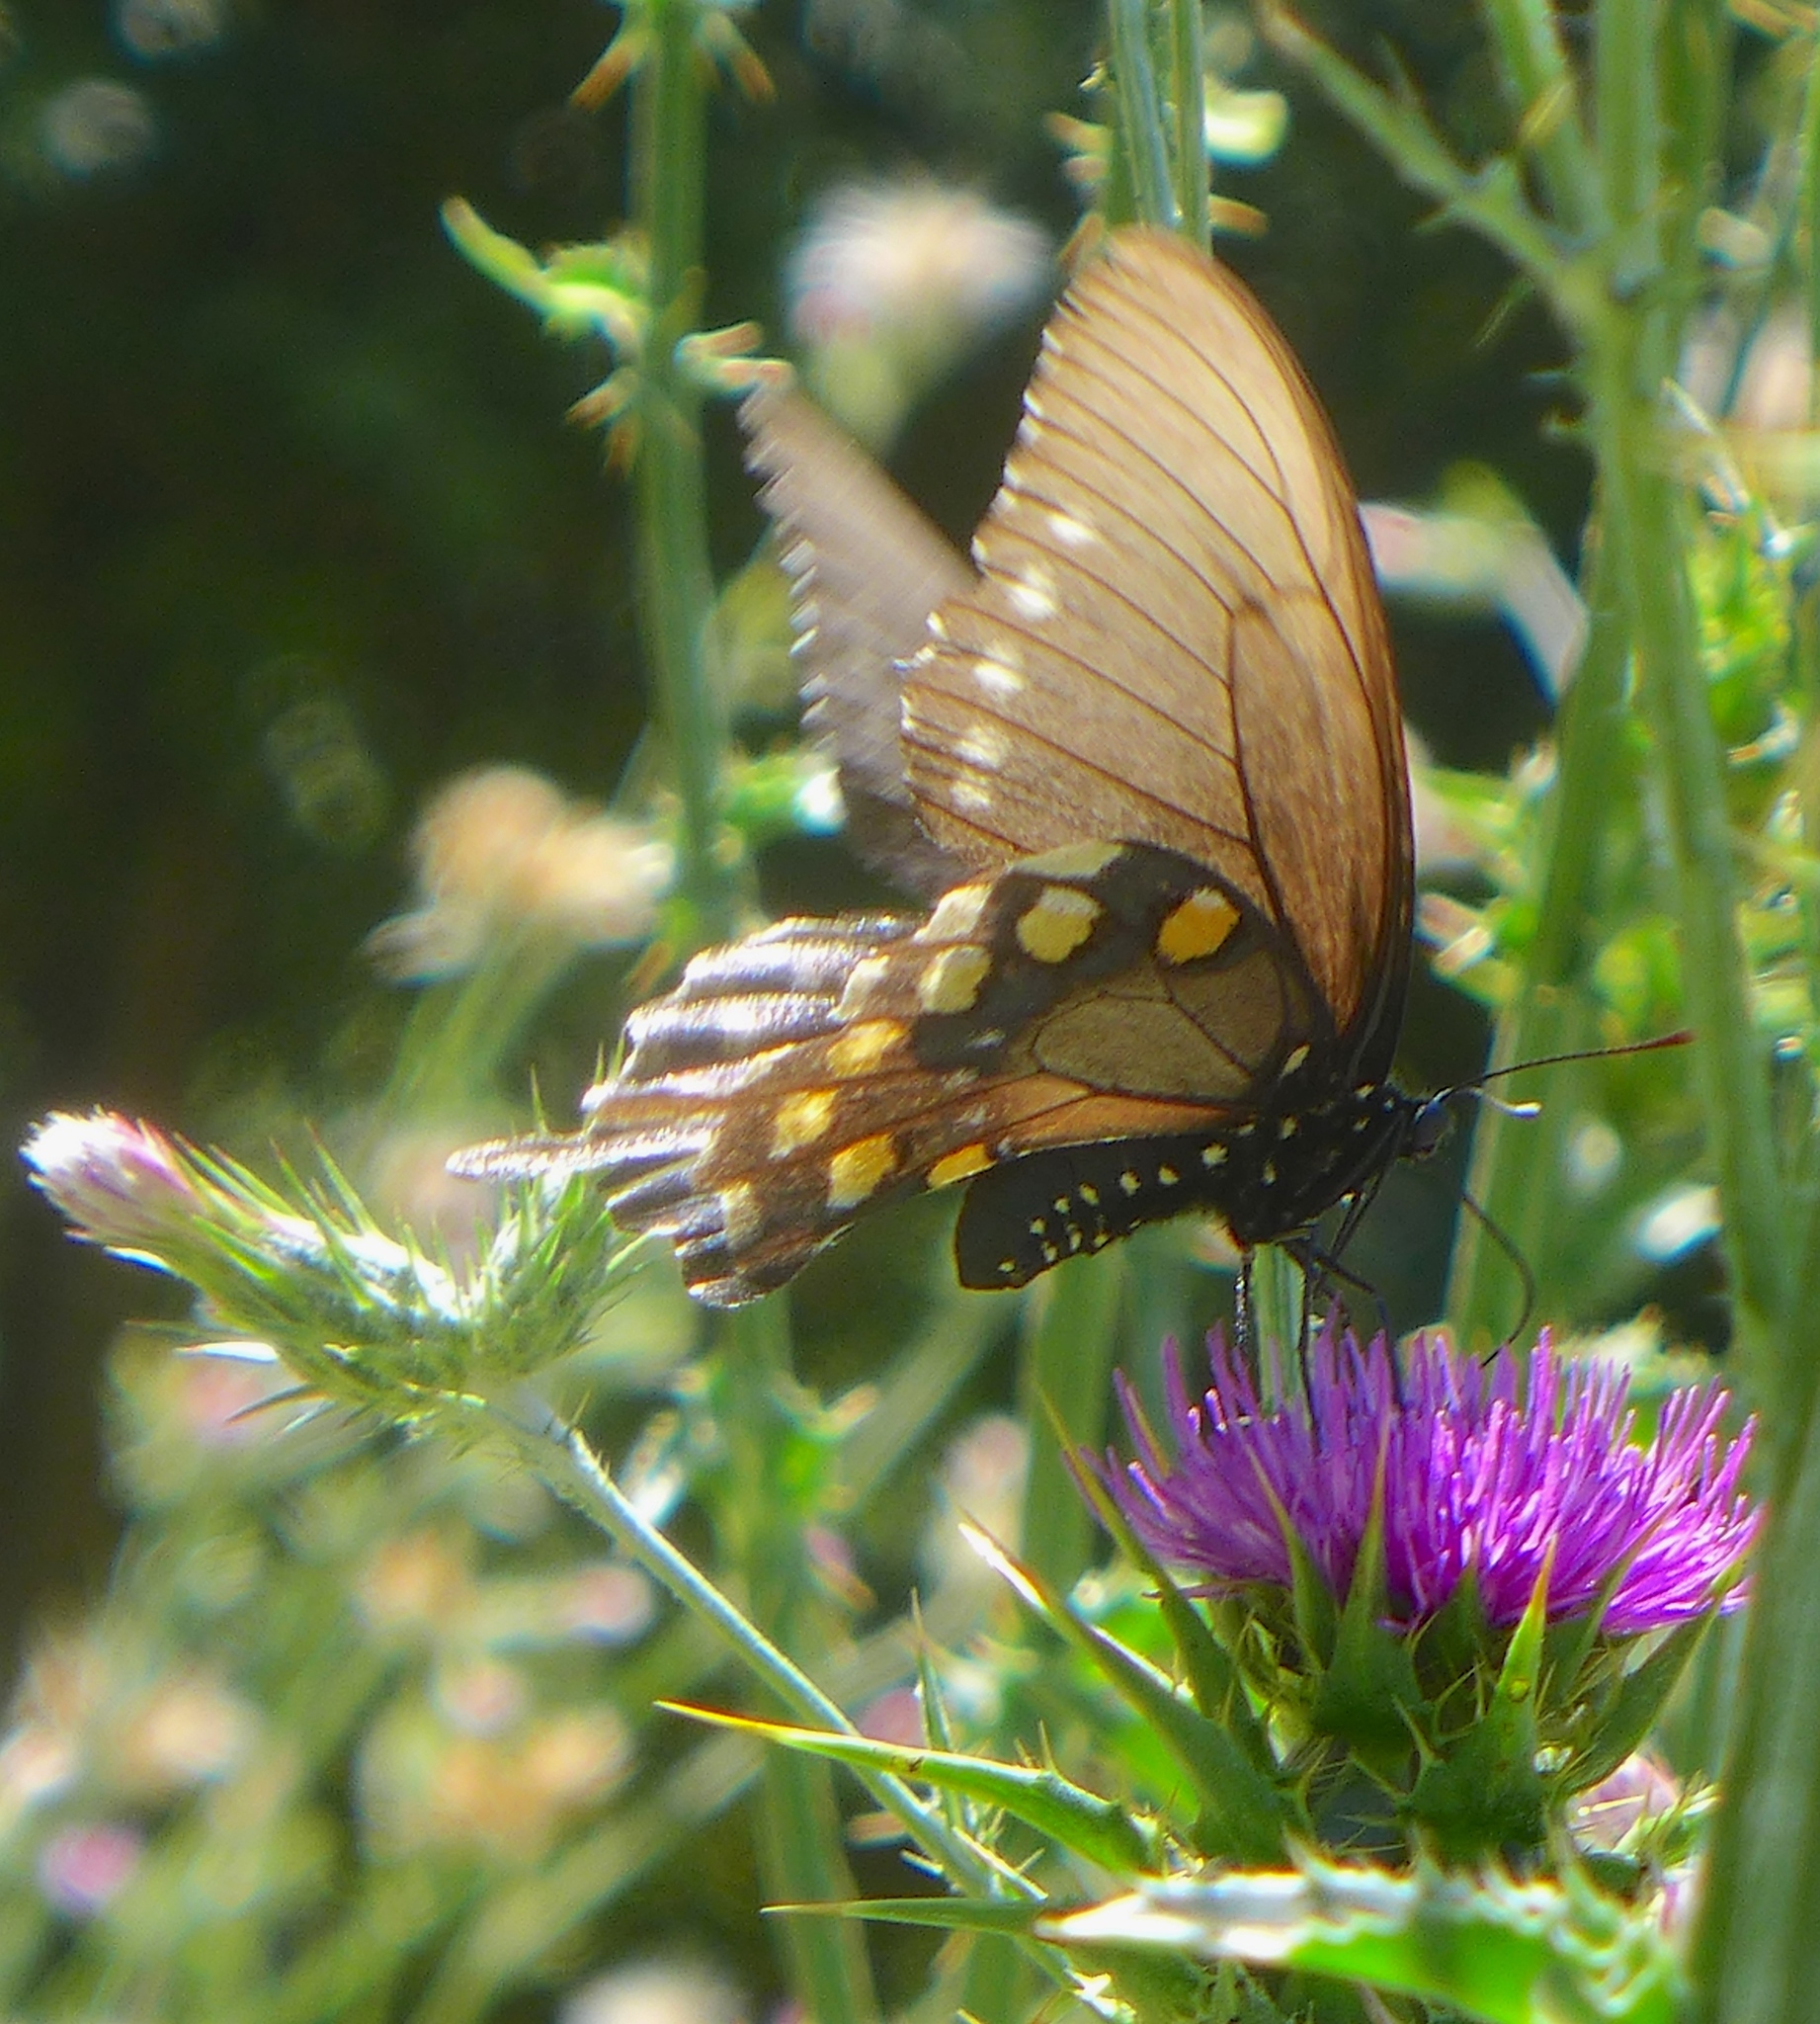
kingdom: Animalia
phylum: Arthropoda
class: Insecta
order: Lepidoptera
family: Papilionidae
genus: Battus
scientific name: Battus philenor
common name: Pipevine swallowtail
